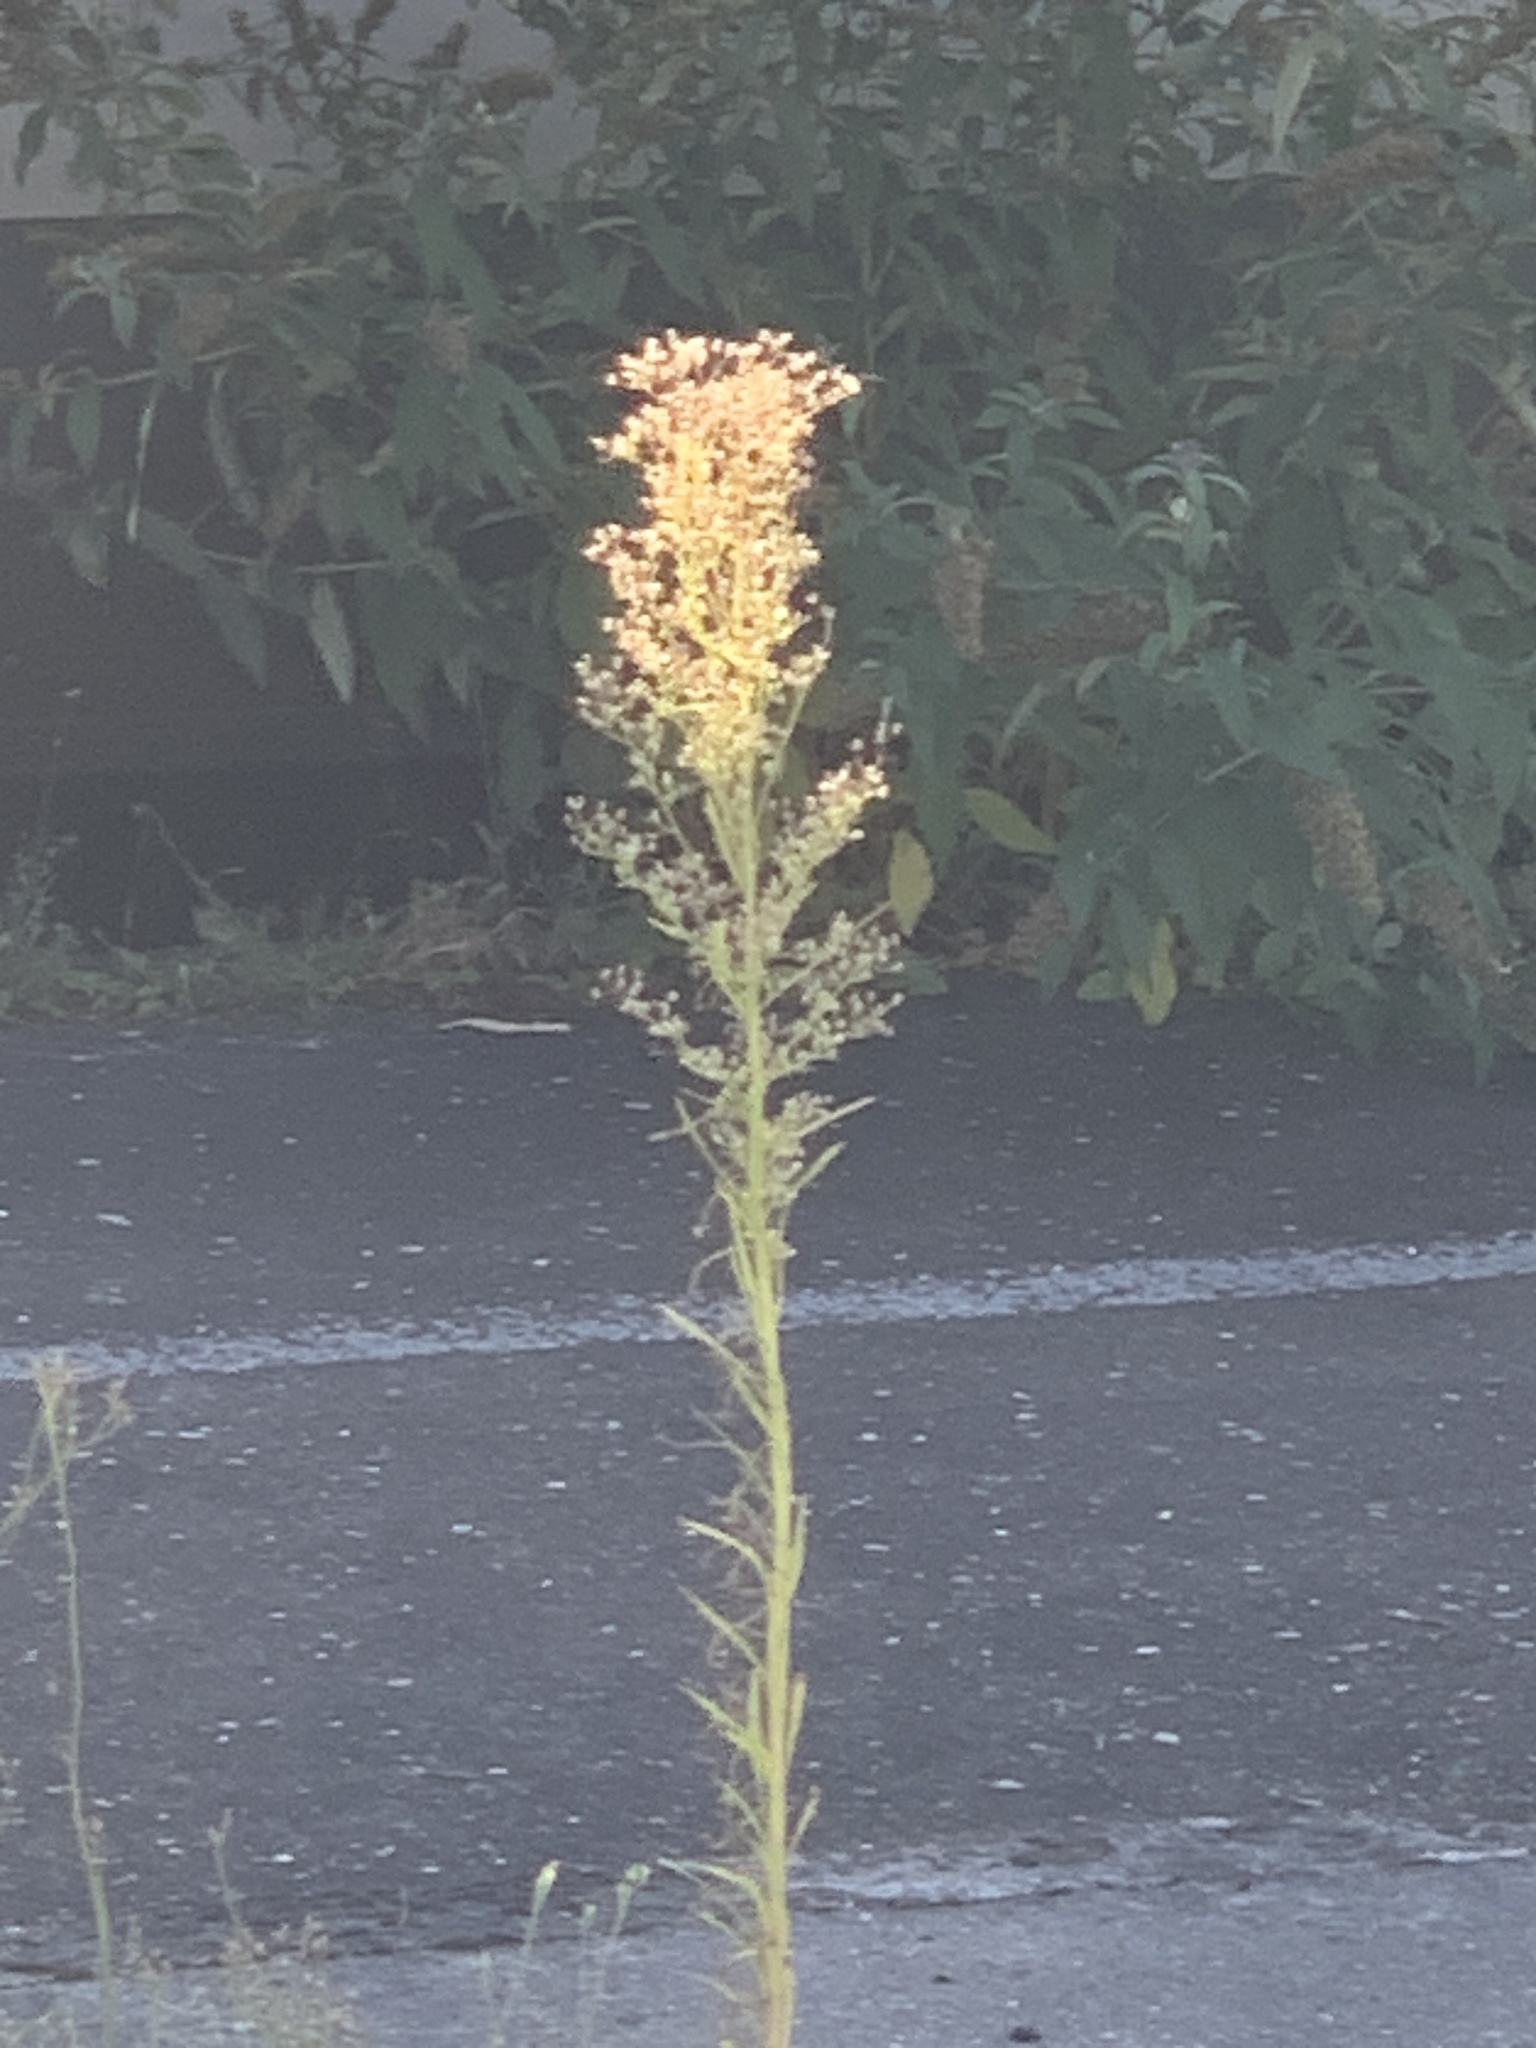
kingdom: Plantae
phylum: Tracheophyta
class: Magnoliopsida
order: Asterales
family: Asteraceae
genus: Erigeron
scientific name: Erigeron canadensis
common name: Canadian fleabane
